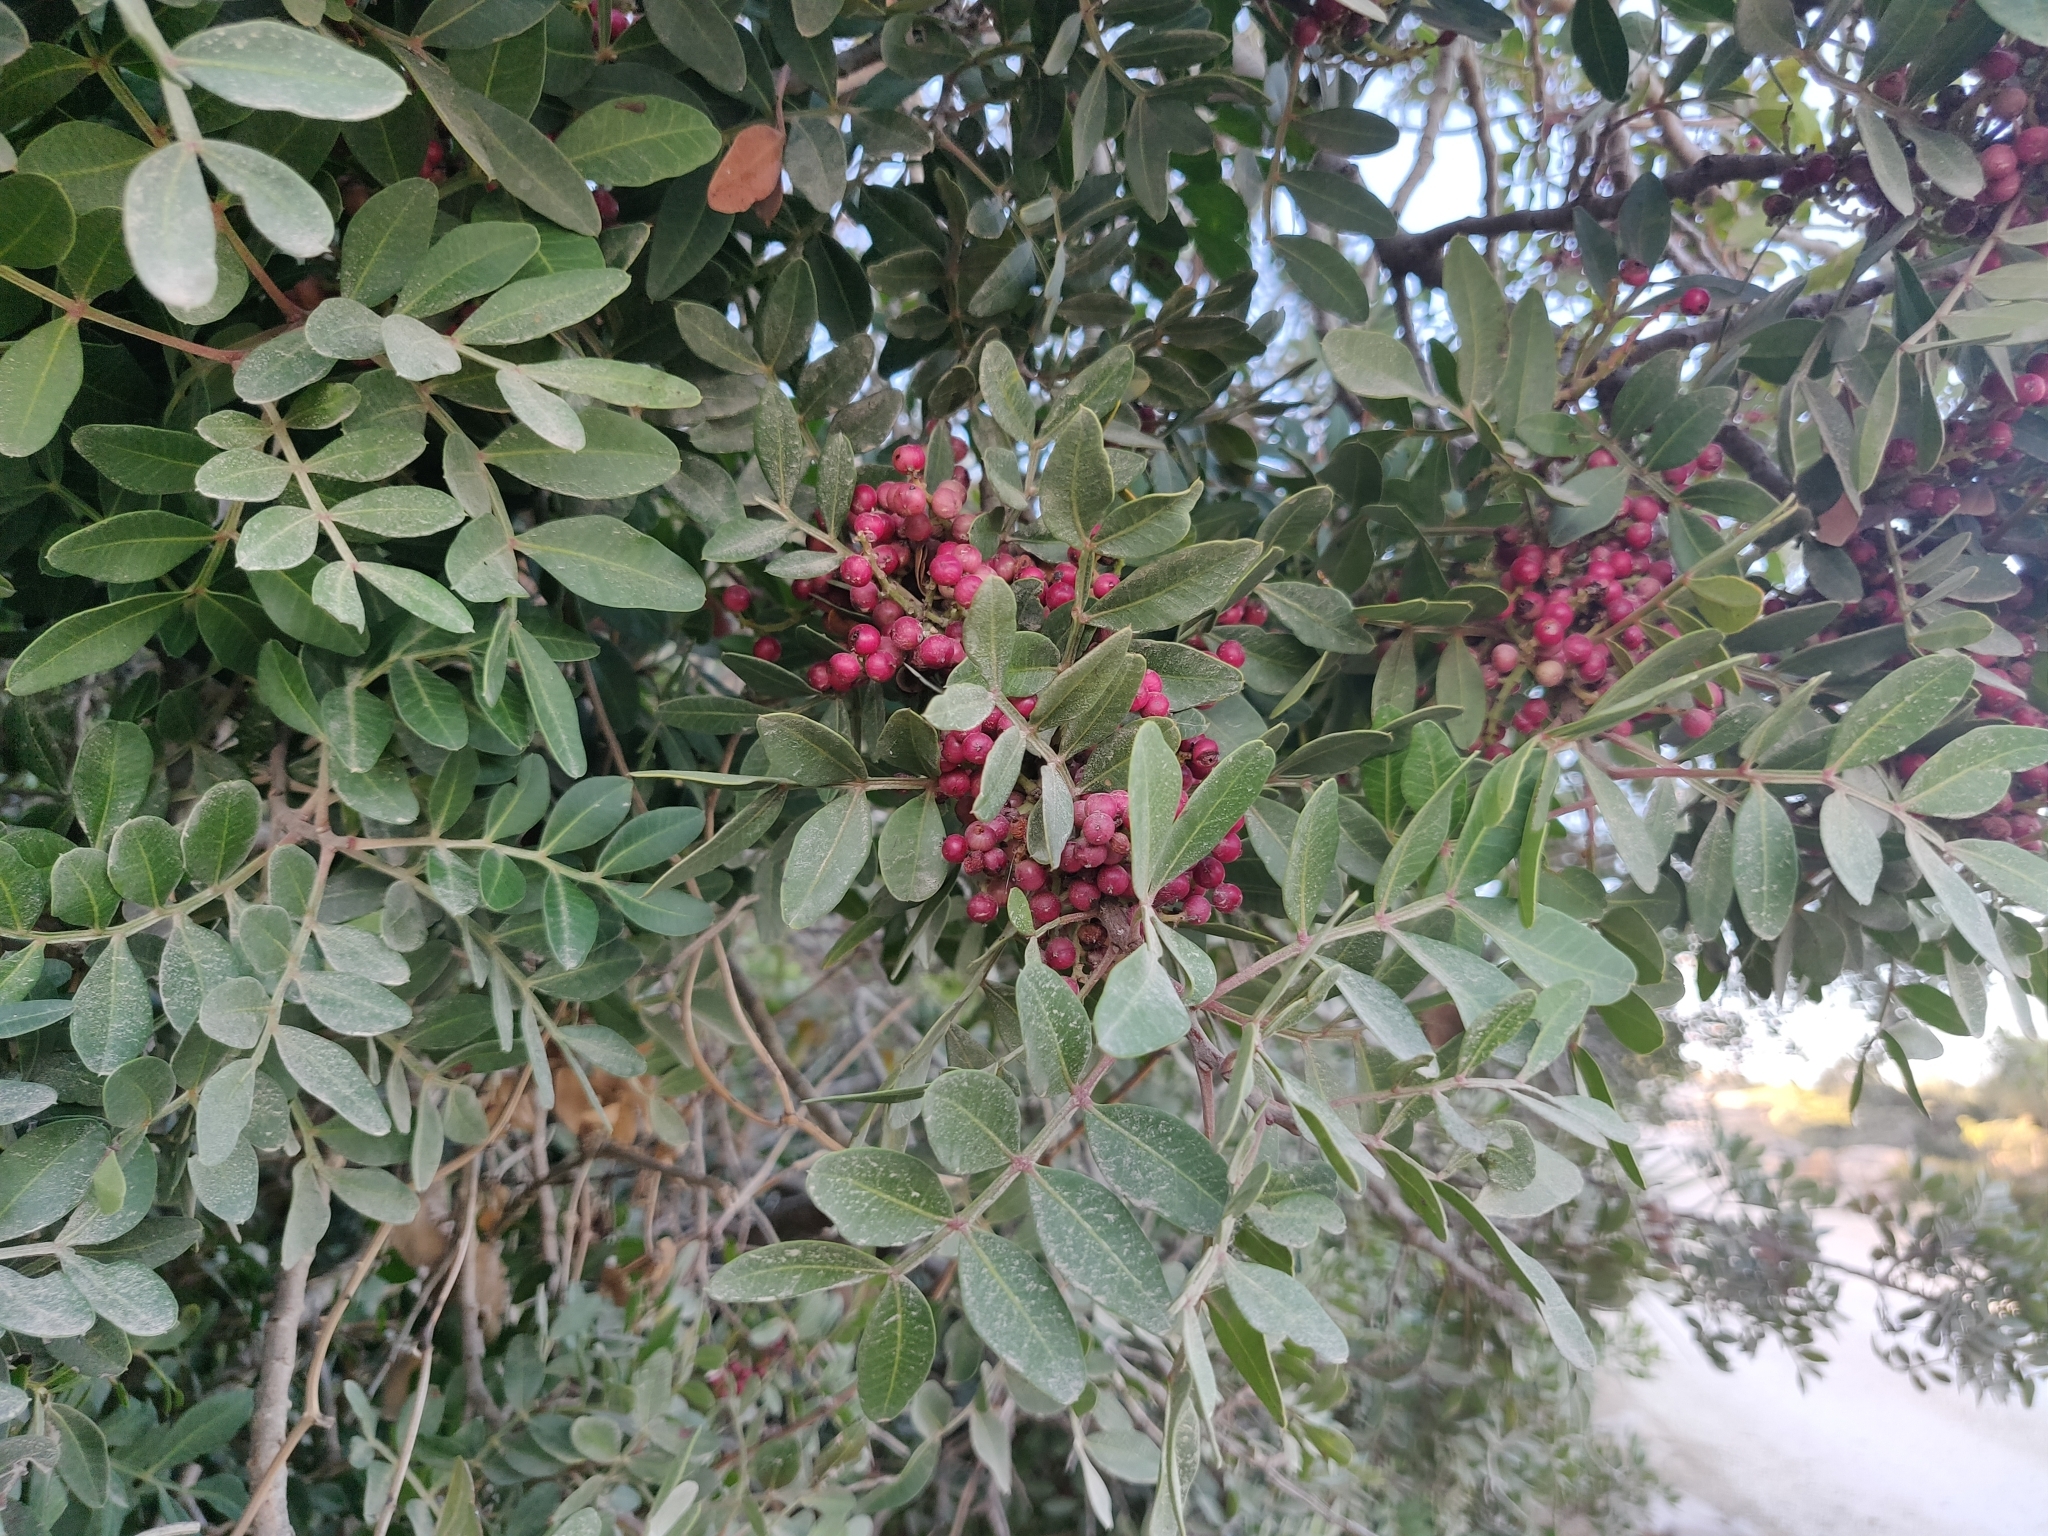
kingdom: Plantae
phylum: Tracheophyta
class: Magnoliopsida
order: Sapindales
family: Anacardiaceae
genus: Pistacia
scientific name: Pistacia lentiscus
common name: Lentisk
